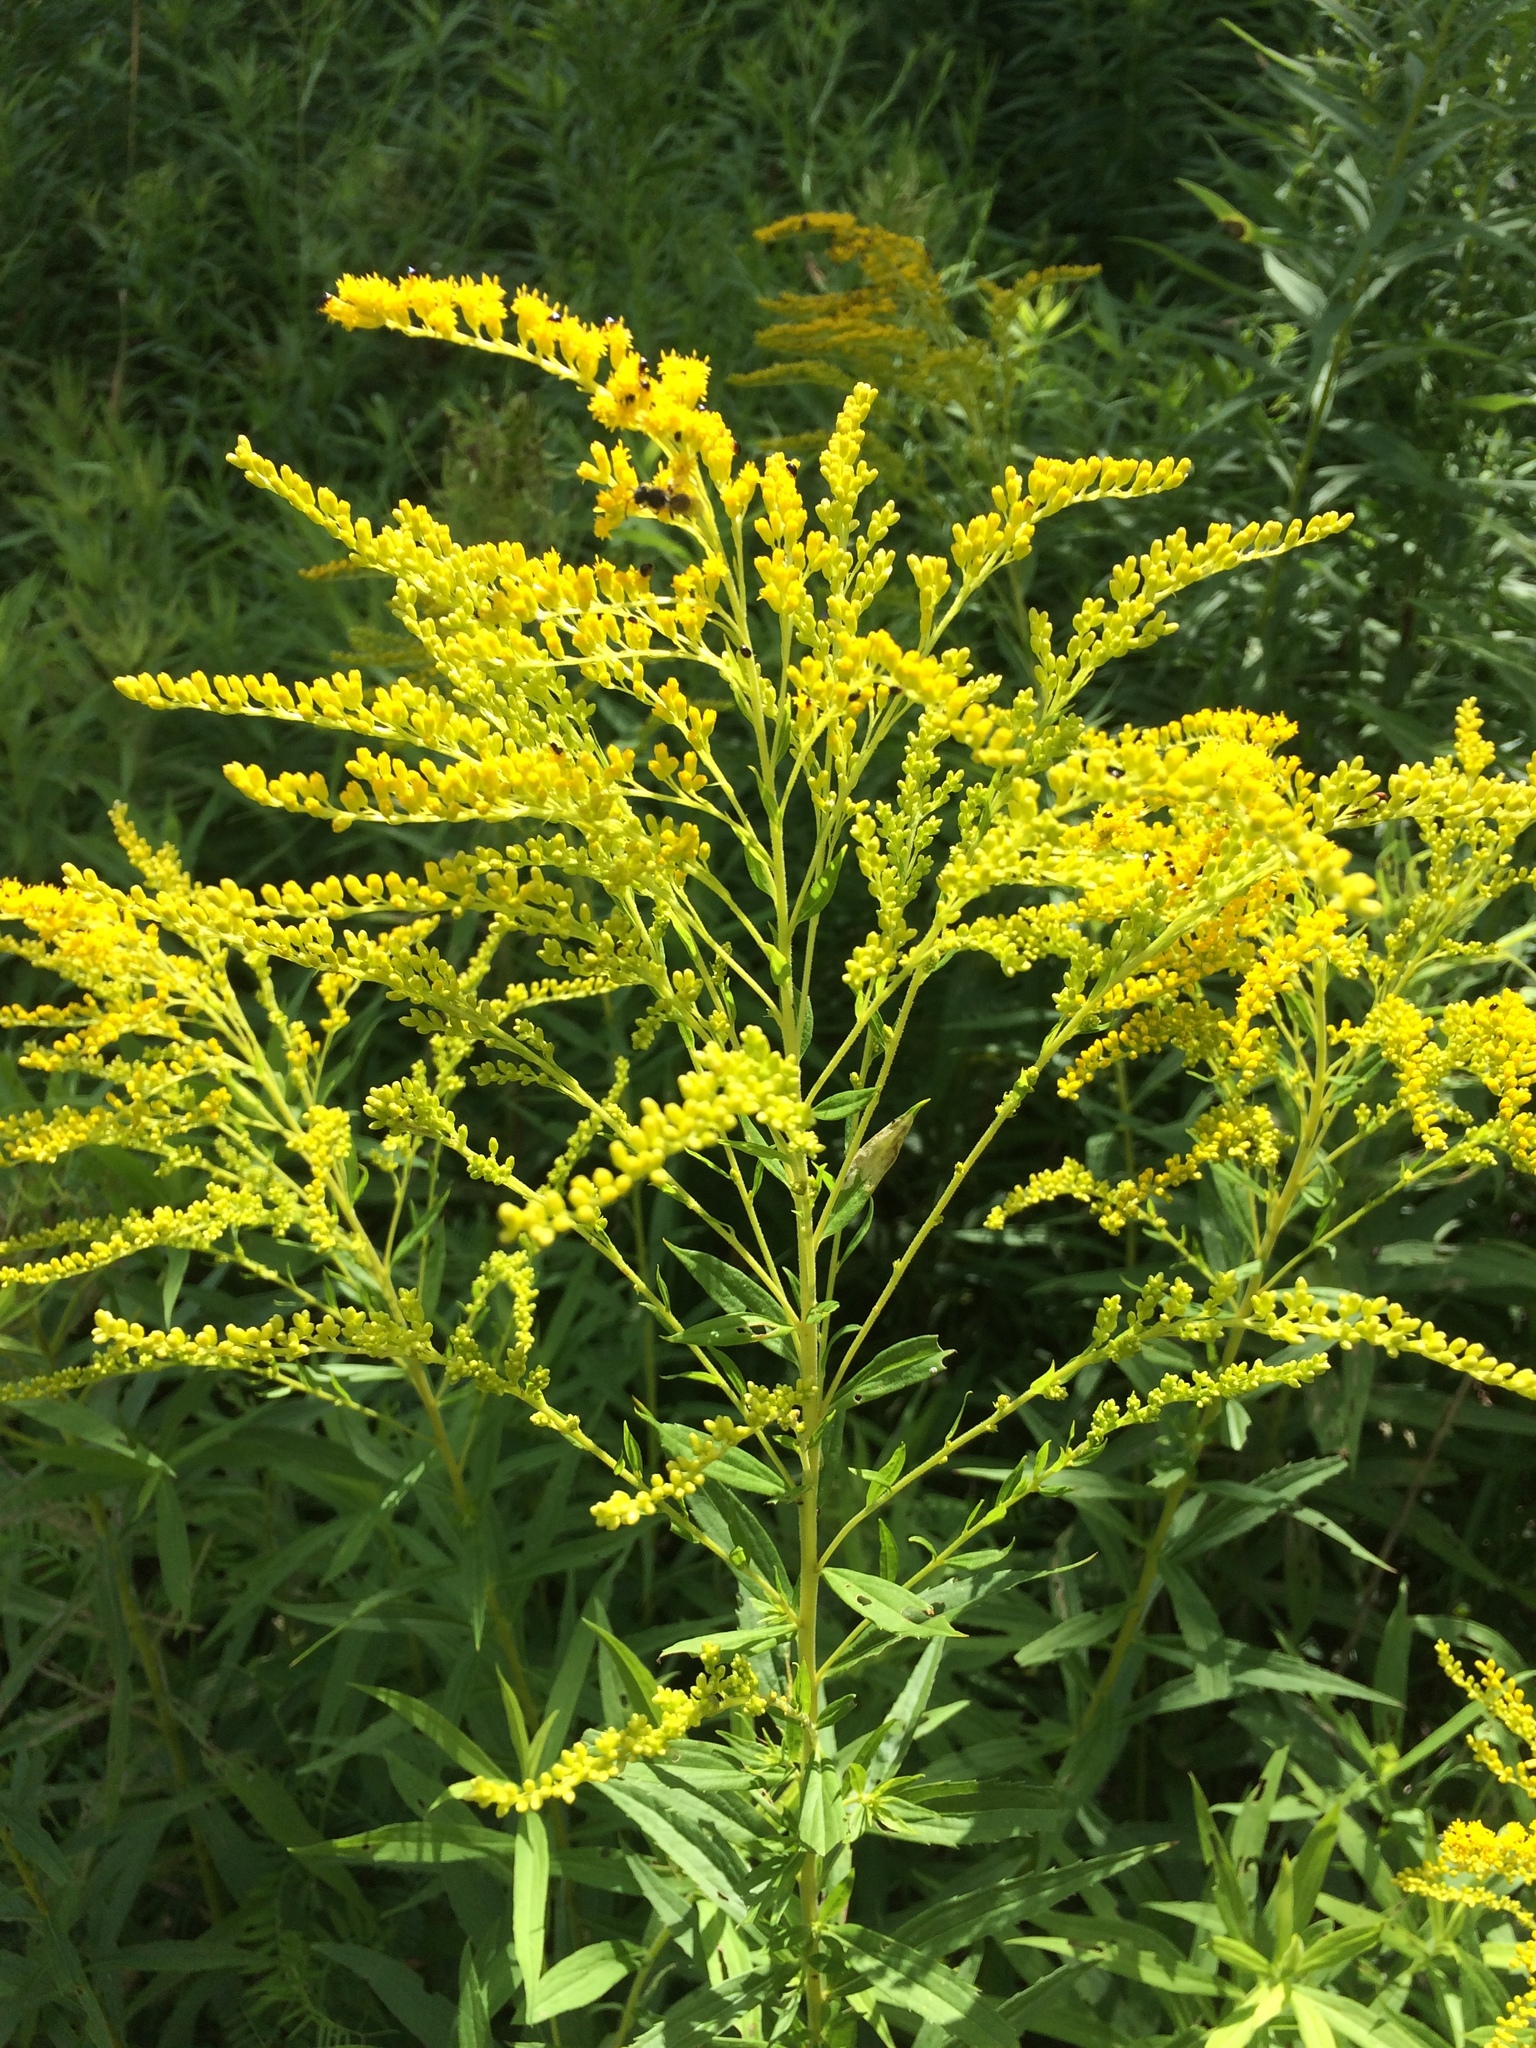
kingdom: Plantae
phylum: Tracheophyta
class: Magnoliopsida
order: Asterales
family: Asteraceae
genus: Solidago
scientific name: Solidago juncea
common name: Early goldenrod
